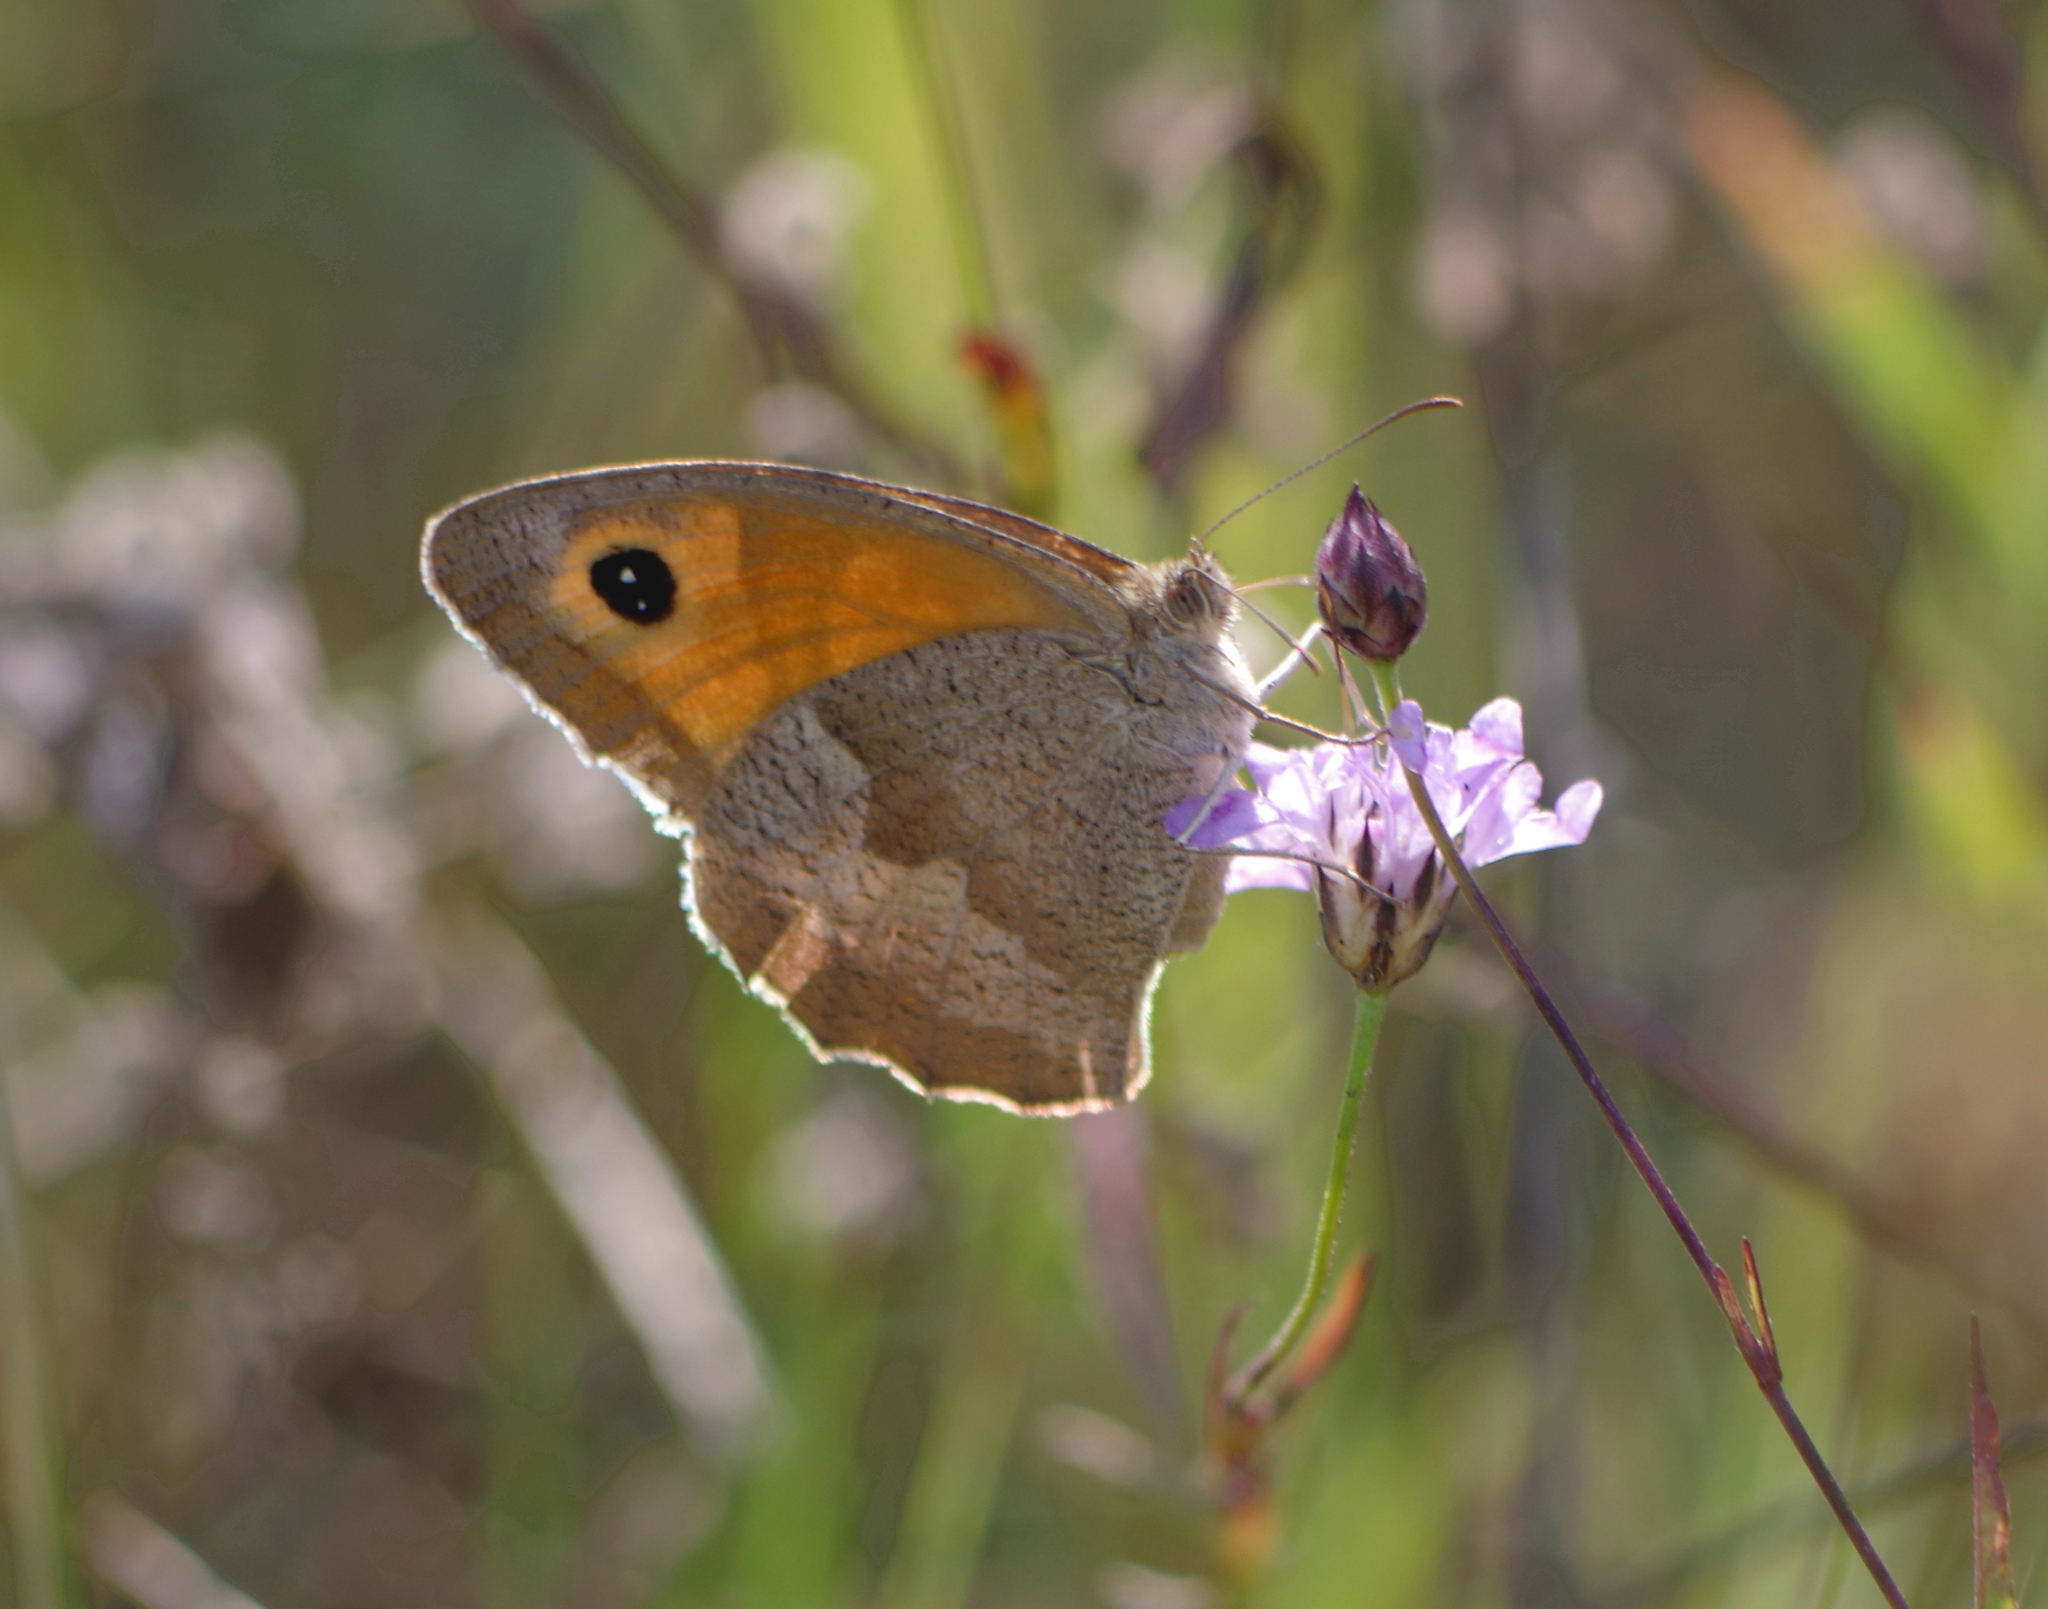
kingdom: Animalia
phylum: Arthropoda
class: Insecta
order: Lepidoptera
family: Nymphalidae
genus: Maniola
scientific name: Maniola jurtina
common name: Meadow brown
